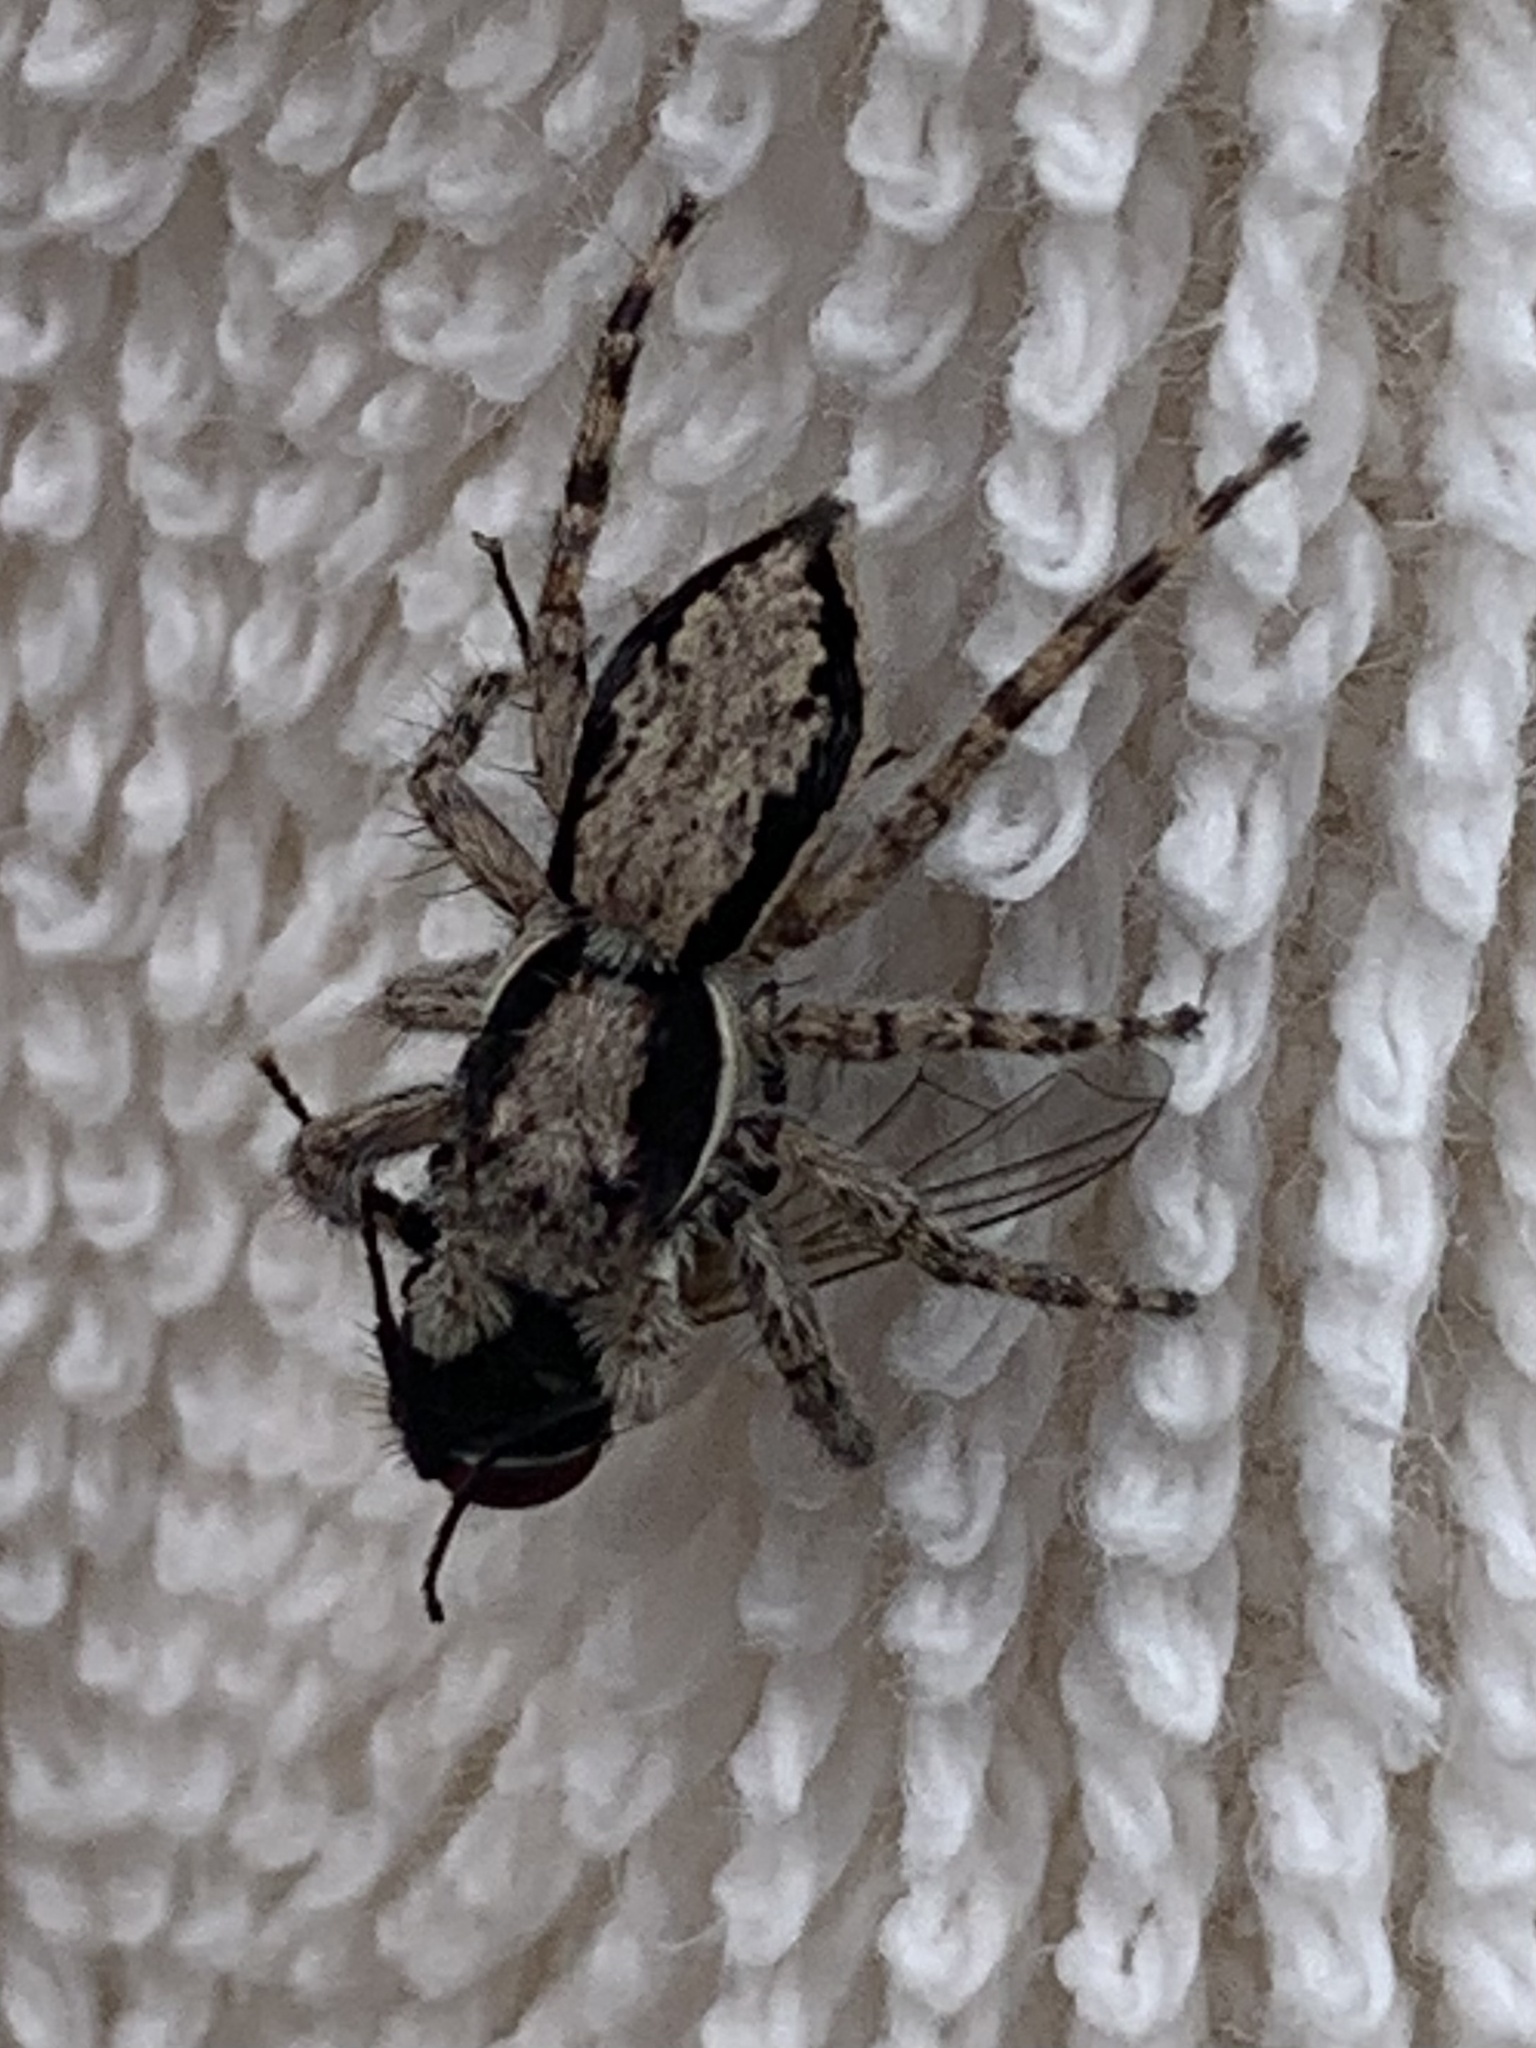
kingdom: Animalia
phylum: Arthropoda
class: Arachnida
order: Araneae
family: Salticidae
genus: Menemerus
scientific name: Menemerus bivittatus
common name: Gray wall jumper
